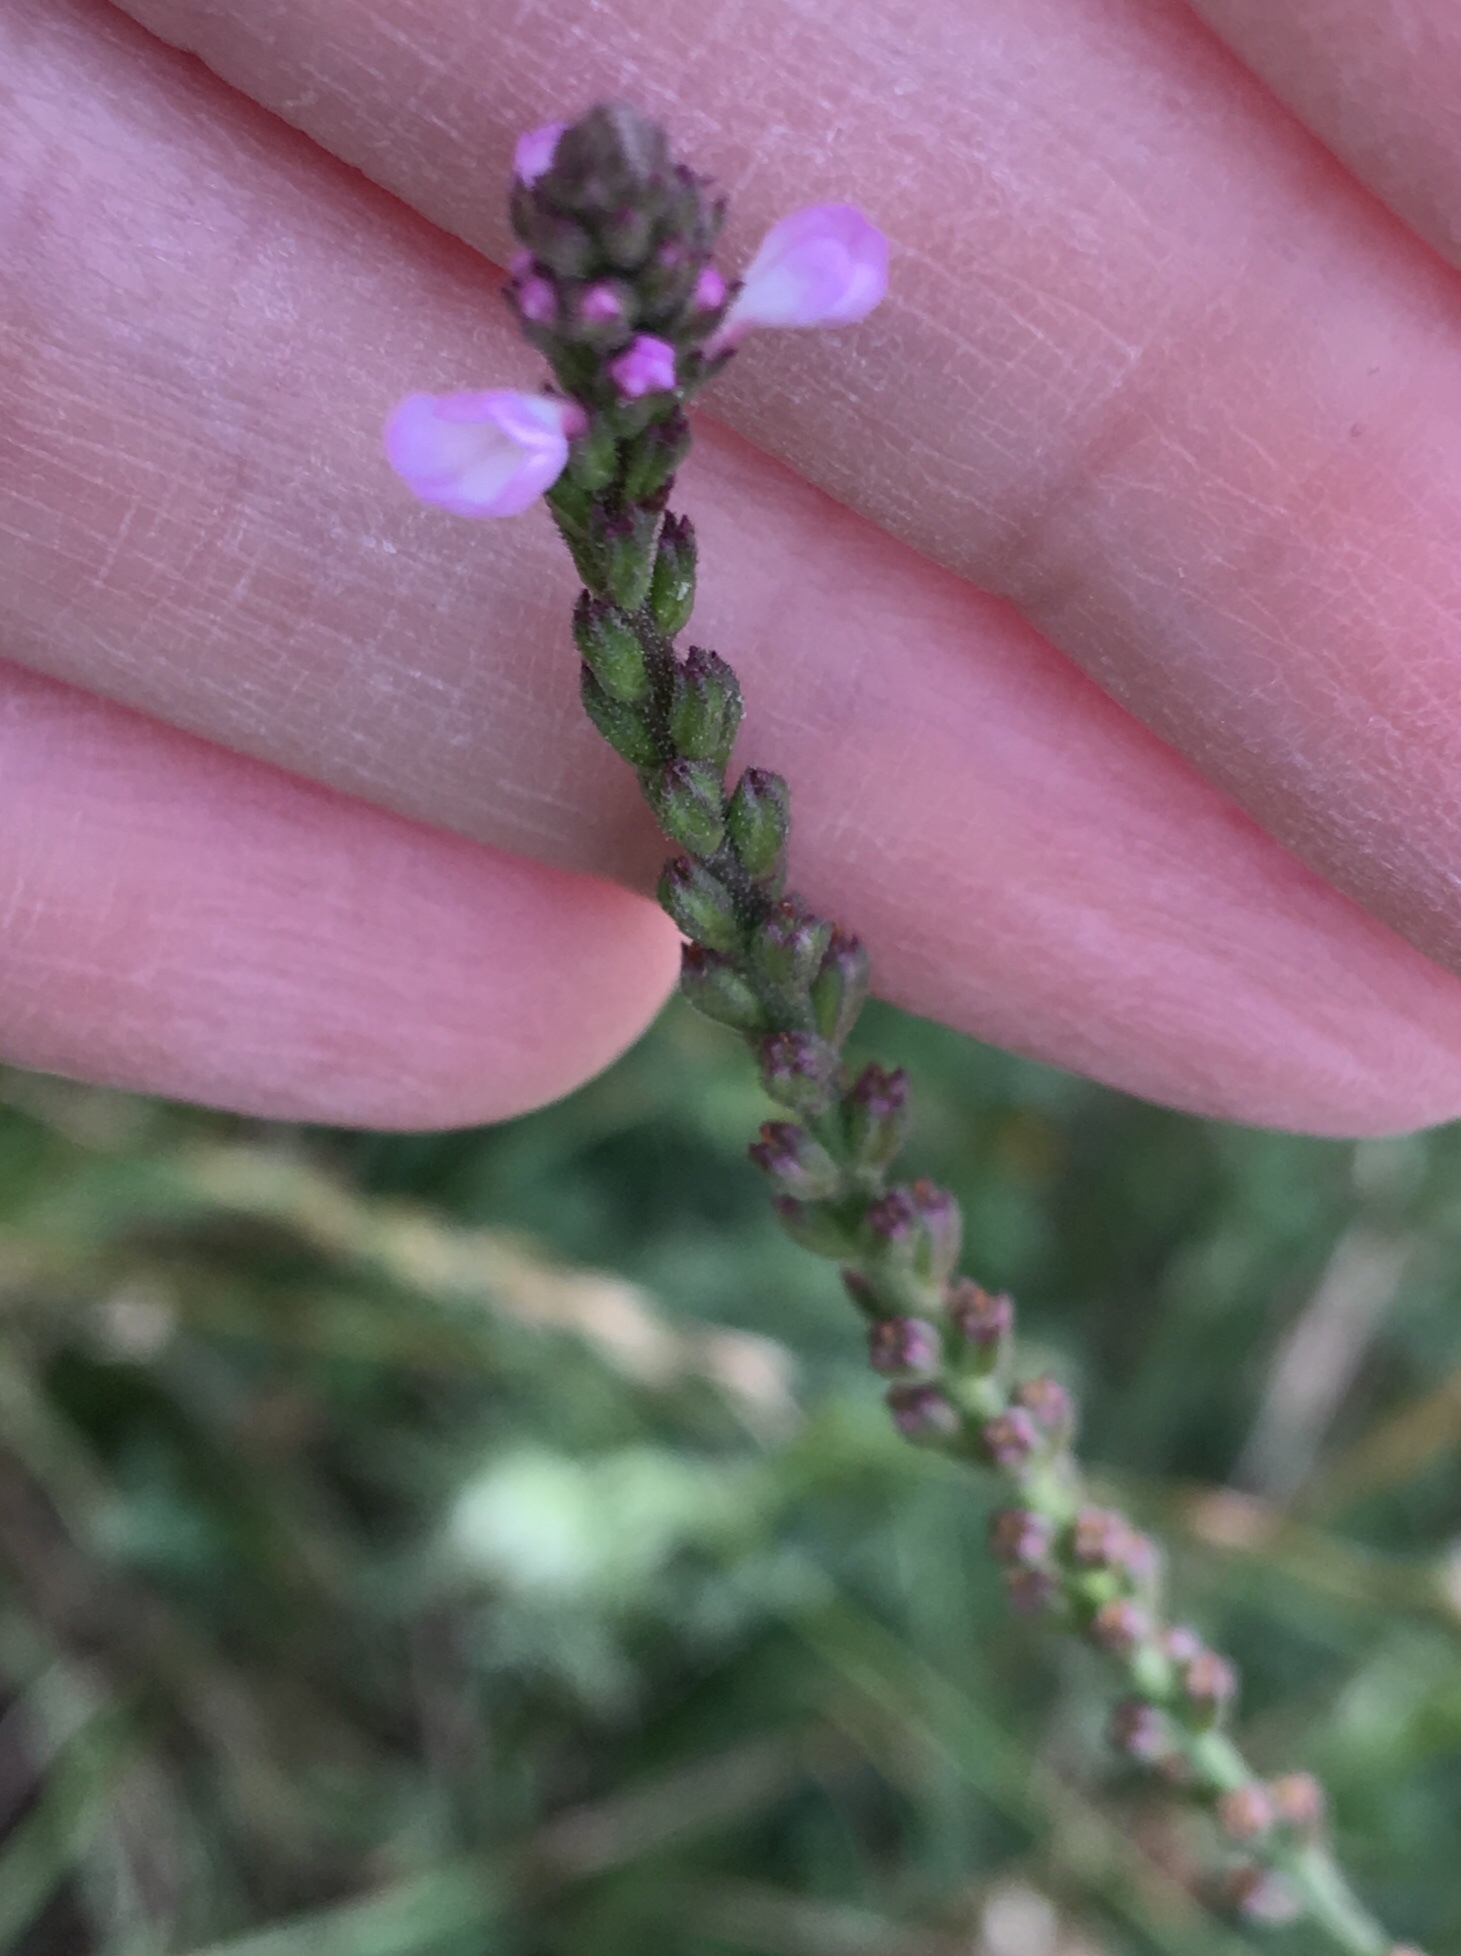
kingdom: Plantae
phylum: Tracheophyta
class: Magnoliopsida
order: Lamiales
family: Verbenaceae
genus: Verbena
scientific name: Verbena officinalis
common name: Vervain
